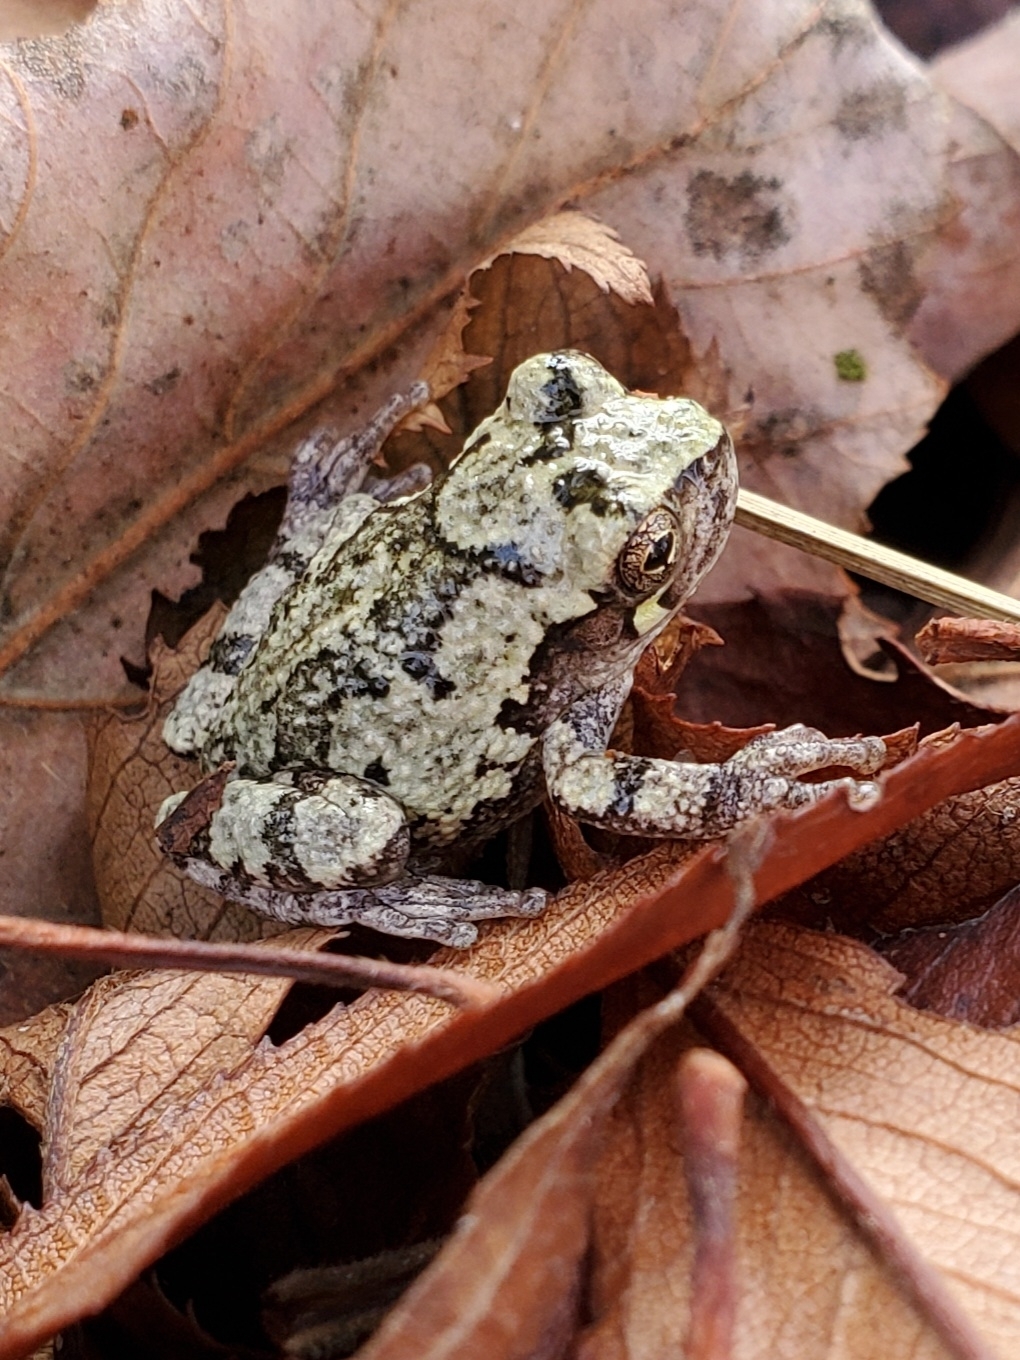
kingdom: Animalia
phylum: Chordata
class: Amphibia
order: Anura
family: Hylidae
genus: Dryophytes
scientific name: Dryophytes chrysoscelis
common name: Cope's gray treefrog
